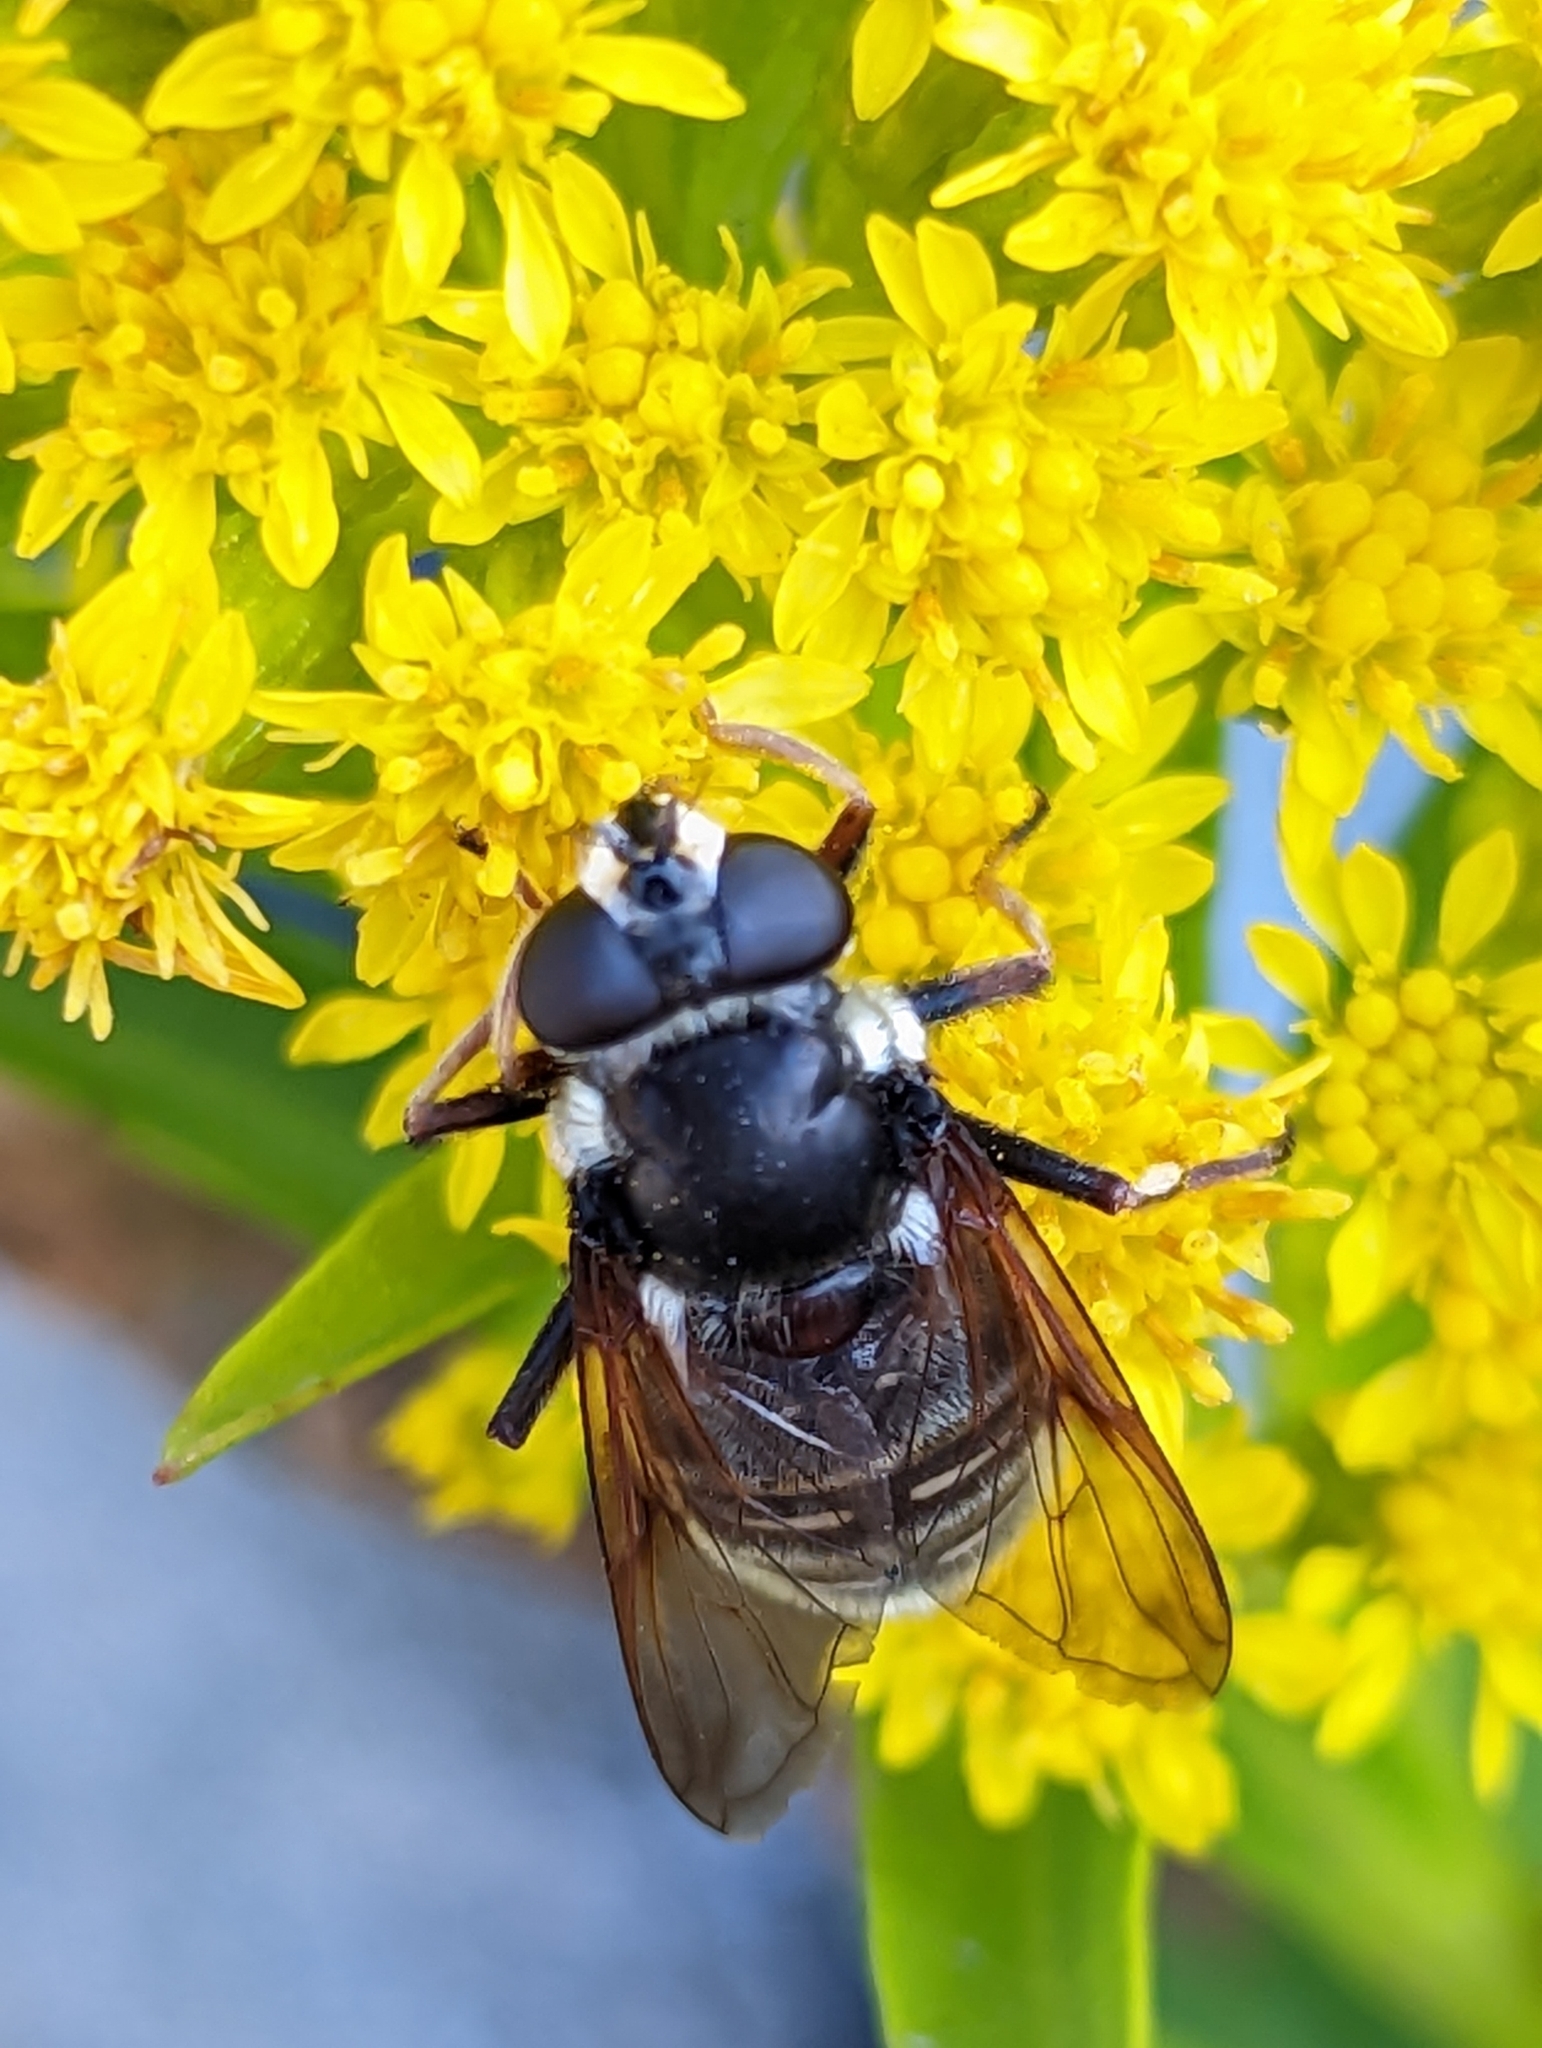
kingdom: Animalia
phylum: Arthropoda
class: Insecta
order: Diptera
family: Syrphidae
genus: Sericomyia
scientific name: Sericomyia militaris
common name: Narrow-banded pond fly
